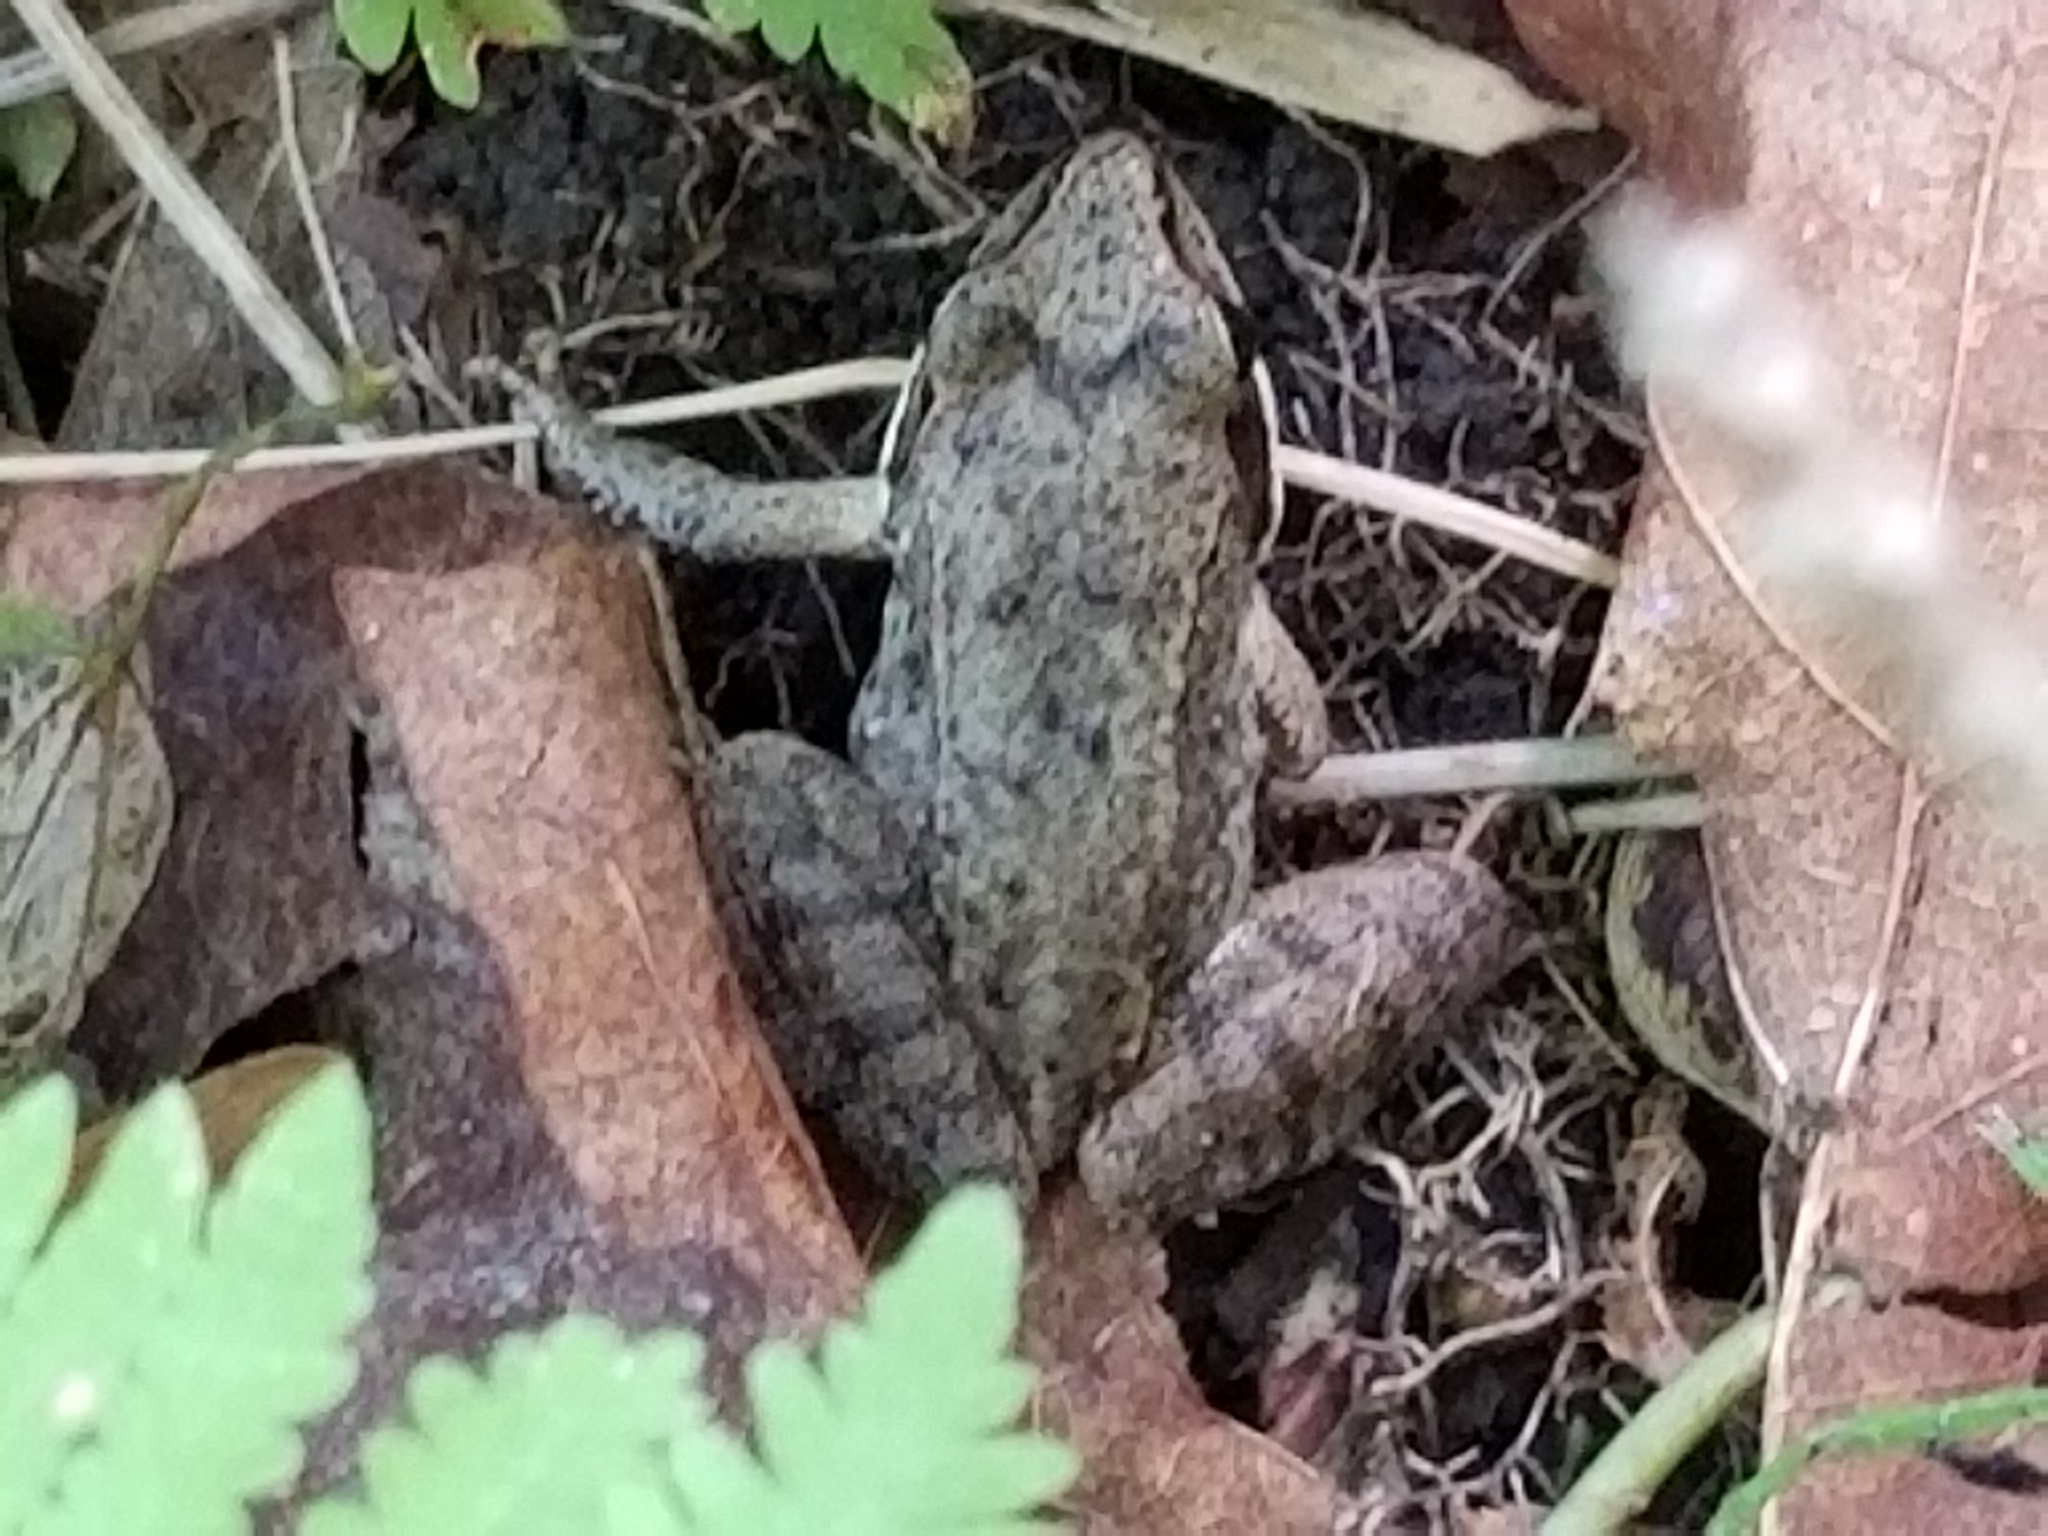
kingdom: Animalia
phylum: Chordata
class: Amphibia
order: Anura
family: Ranidae
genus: Lithobates
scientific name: Lithobates sylvaticus
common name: Wood frog
